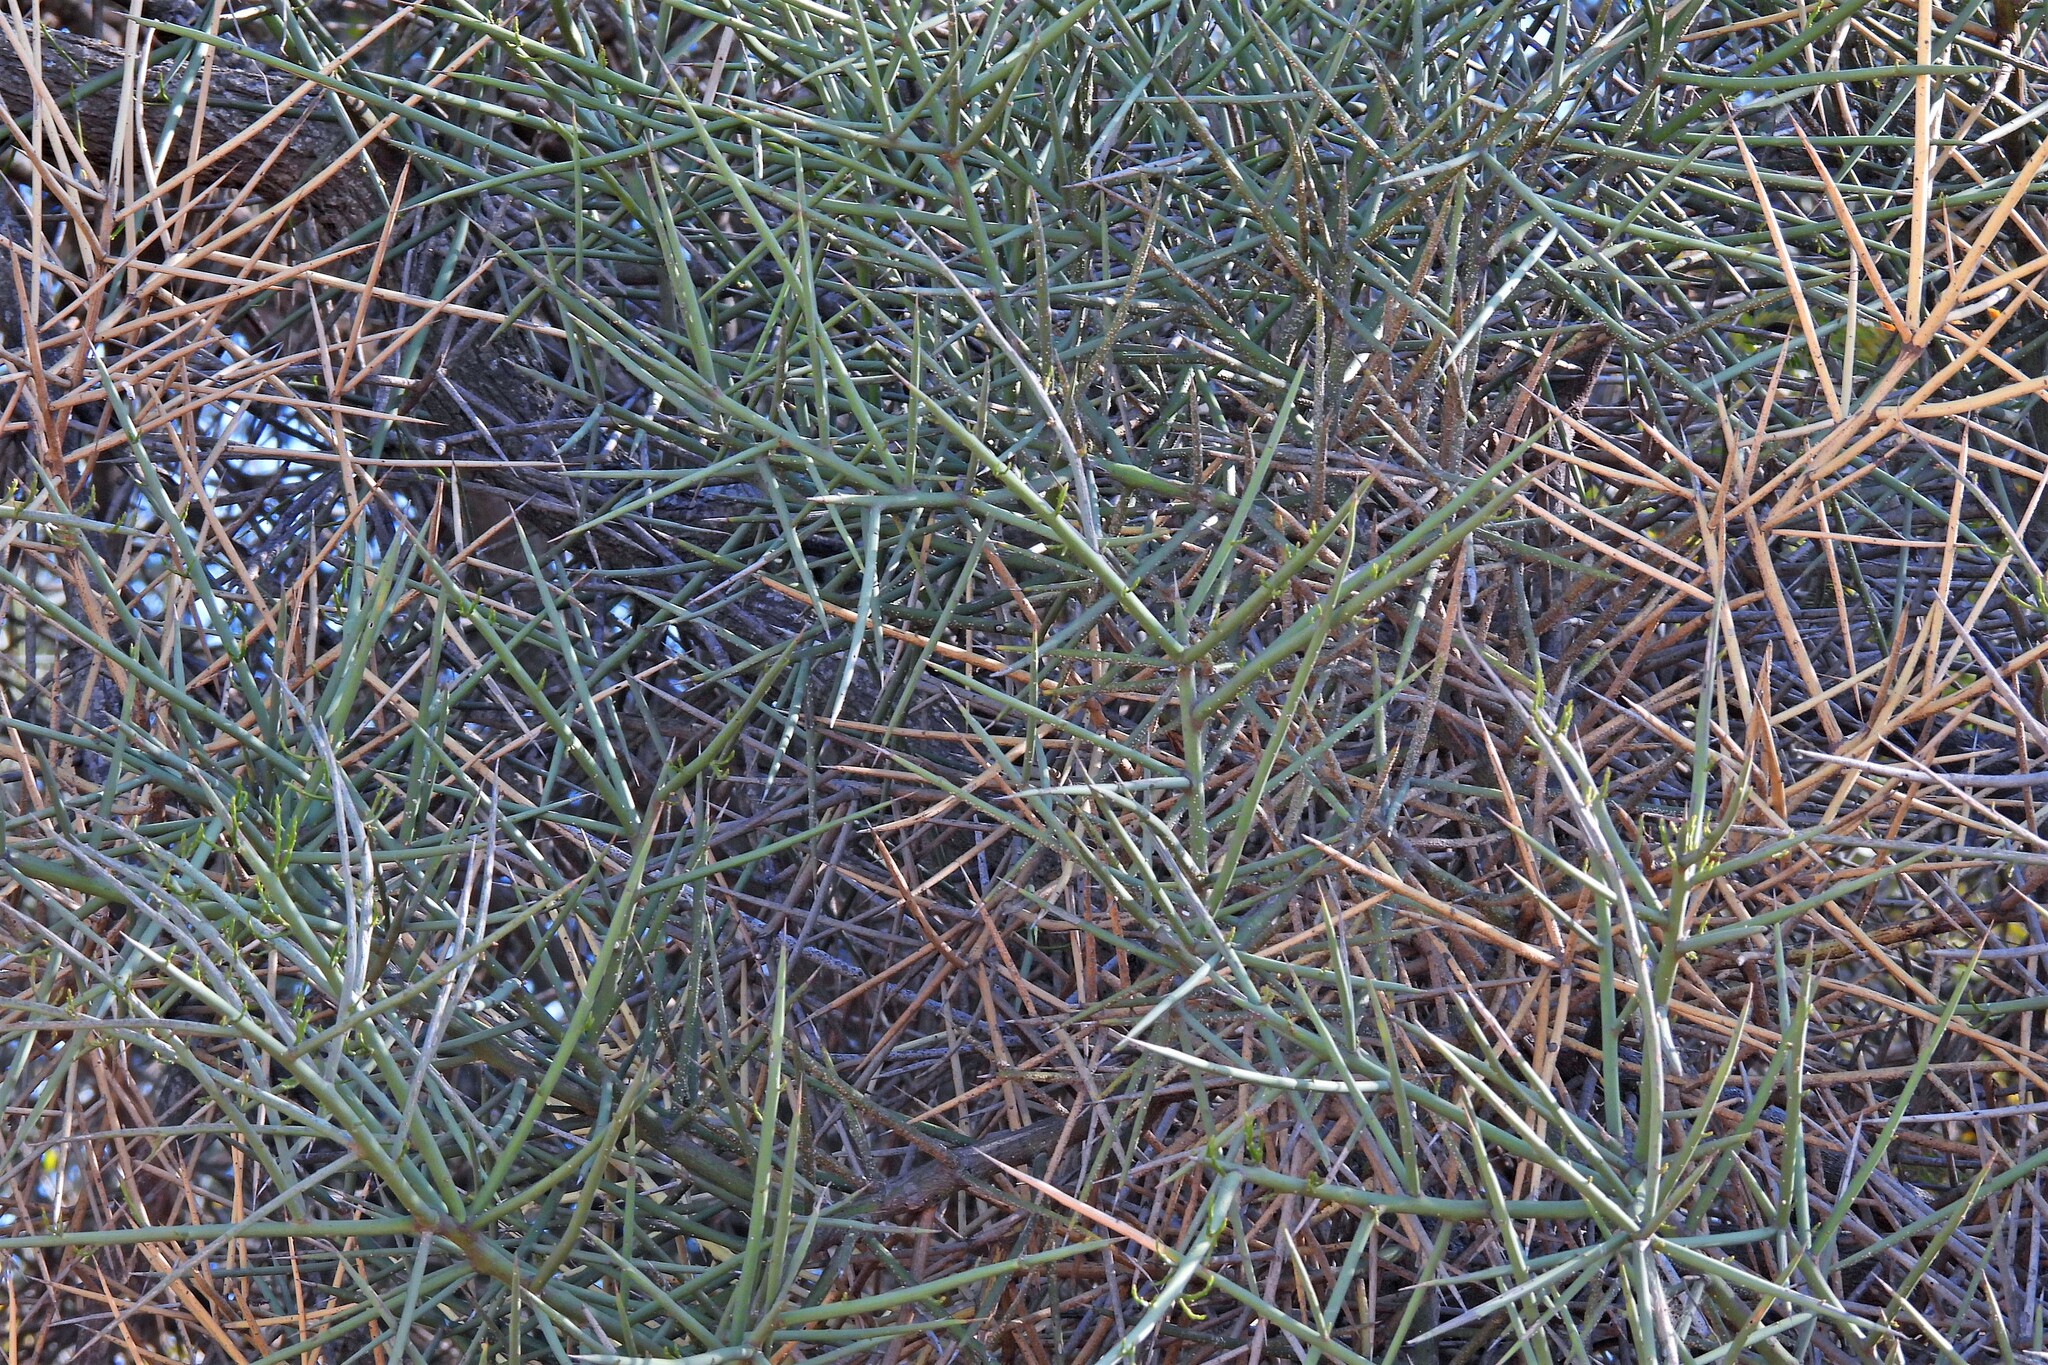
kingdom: Plantae
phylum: Tracheophyta
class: Magnoliopsida
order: Fabales
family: Fabaceae
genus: Prosopis
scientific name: Prosopis kuntzei
